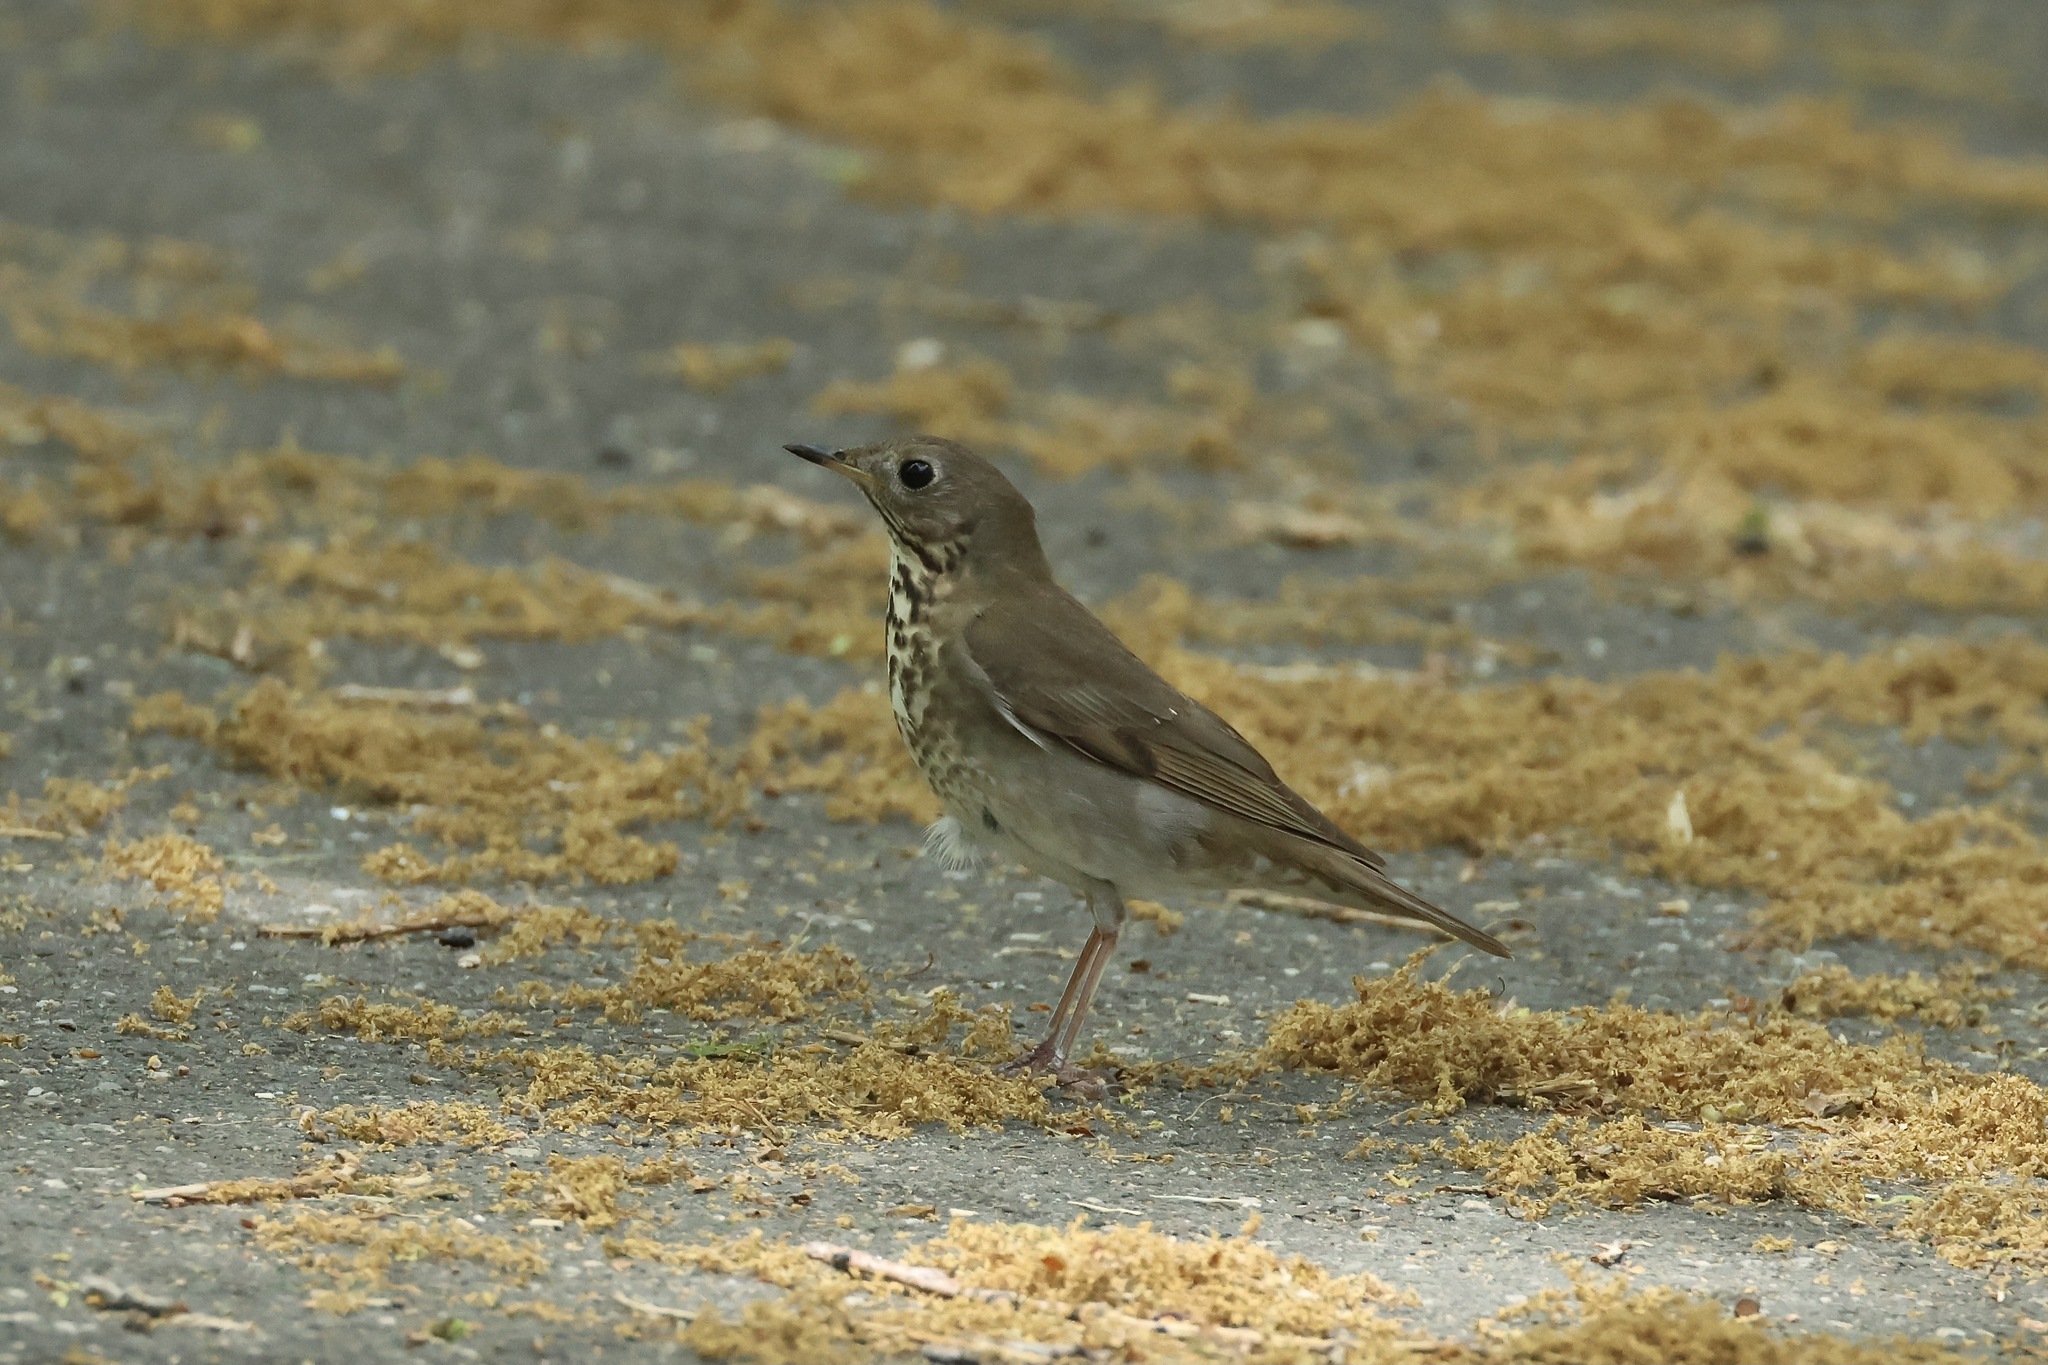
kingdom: Animalia
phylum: Chordata
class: Aves
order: Passeriformes
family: Turdidae
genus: Catharus
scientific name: Catharus minimus
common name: Grey-cheeked thrush
